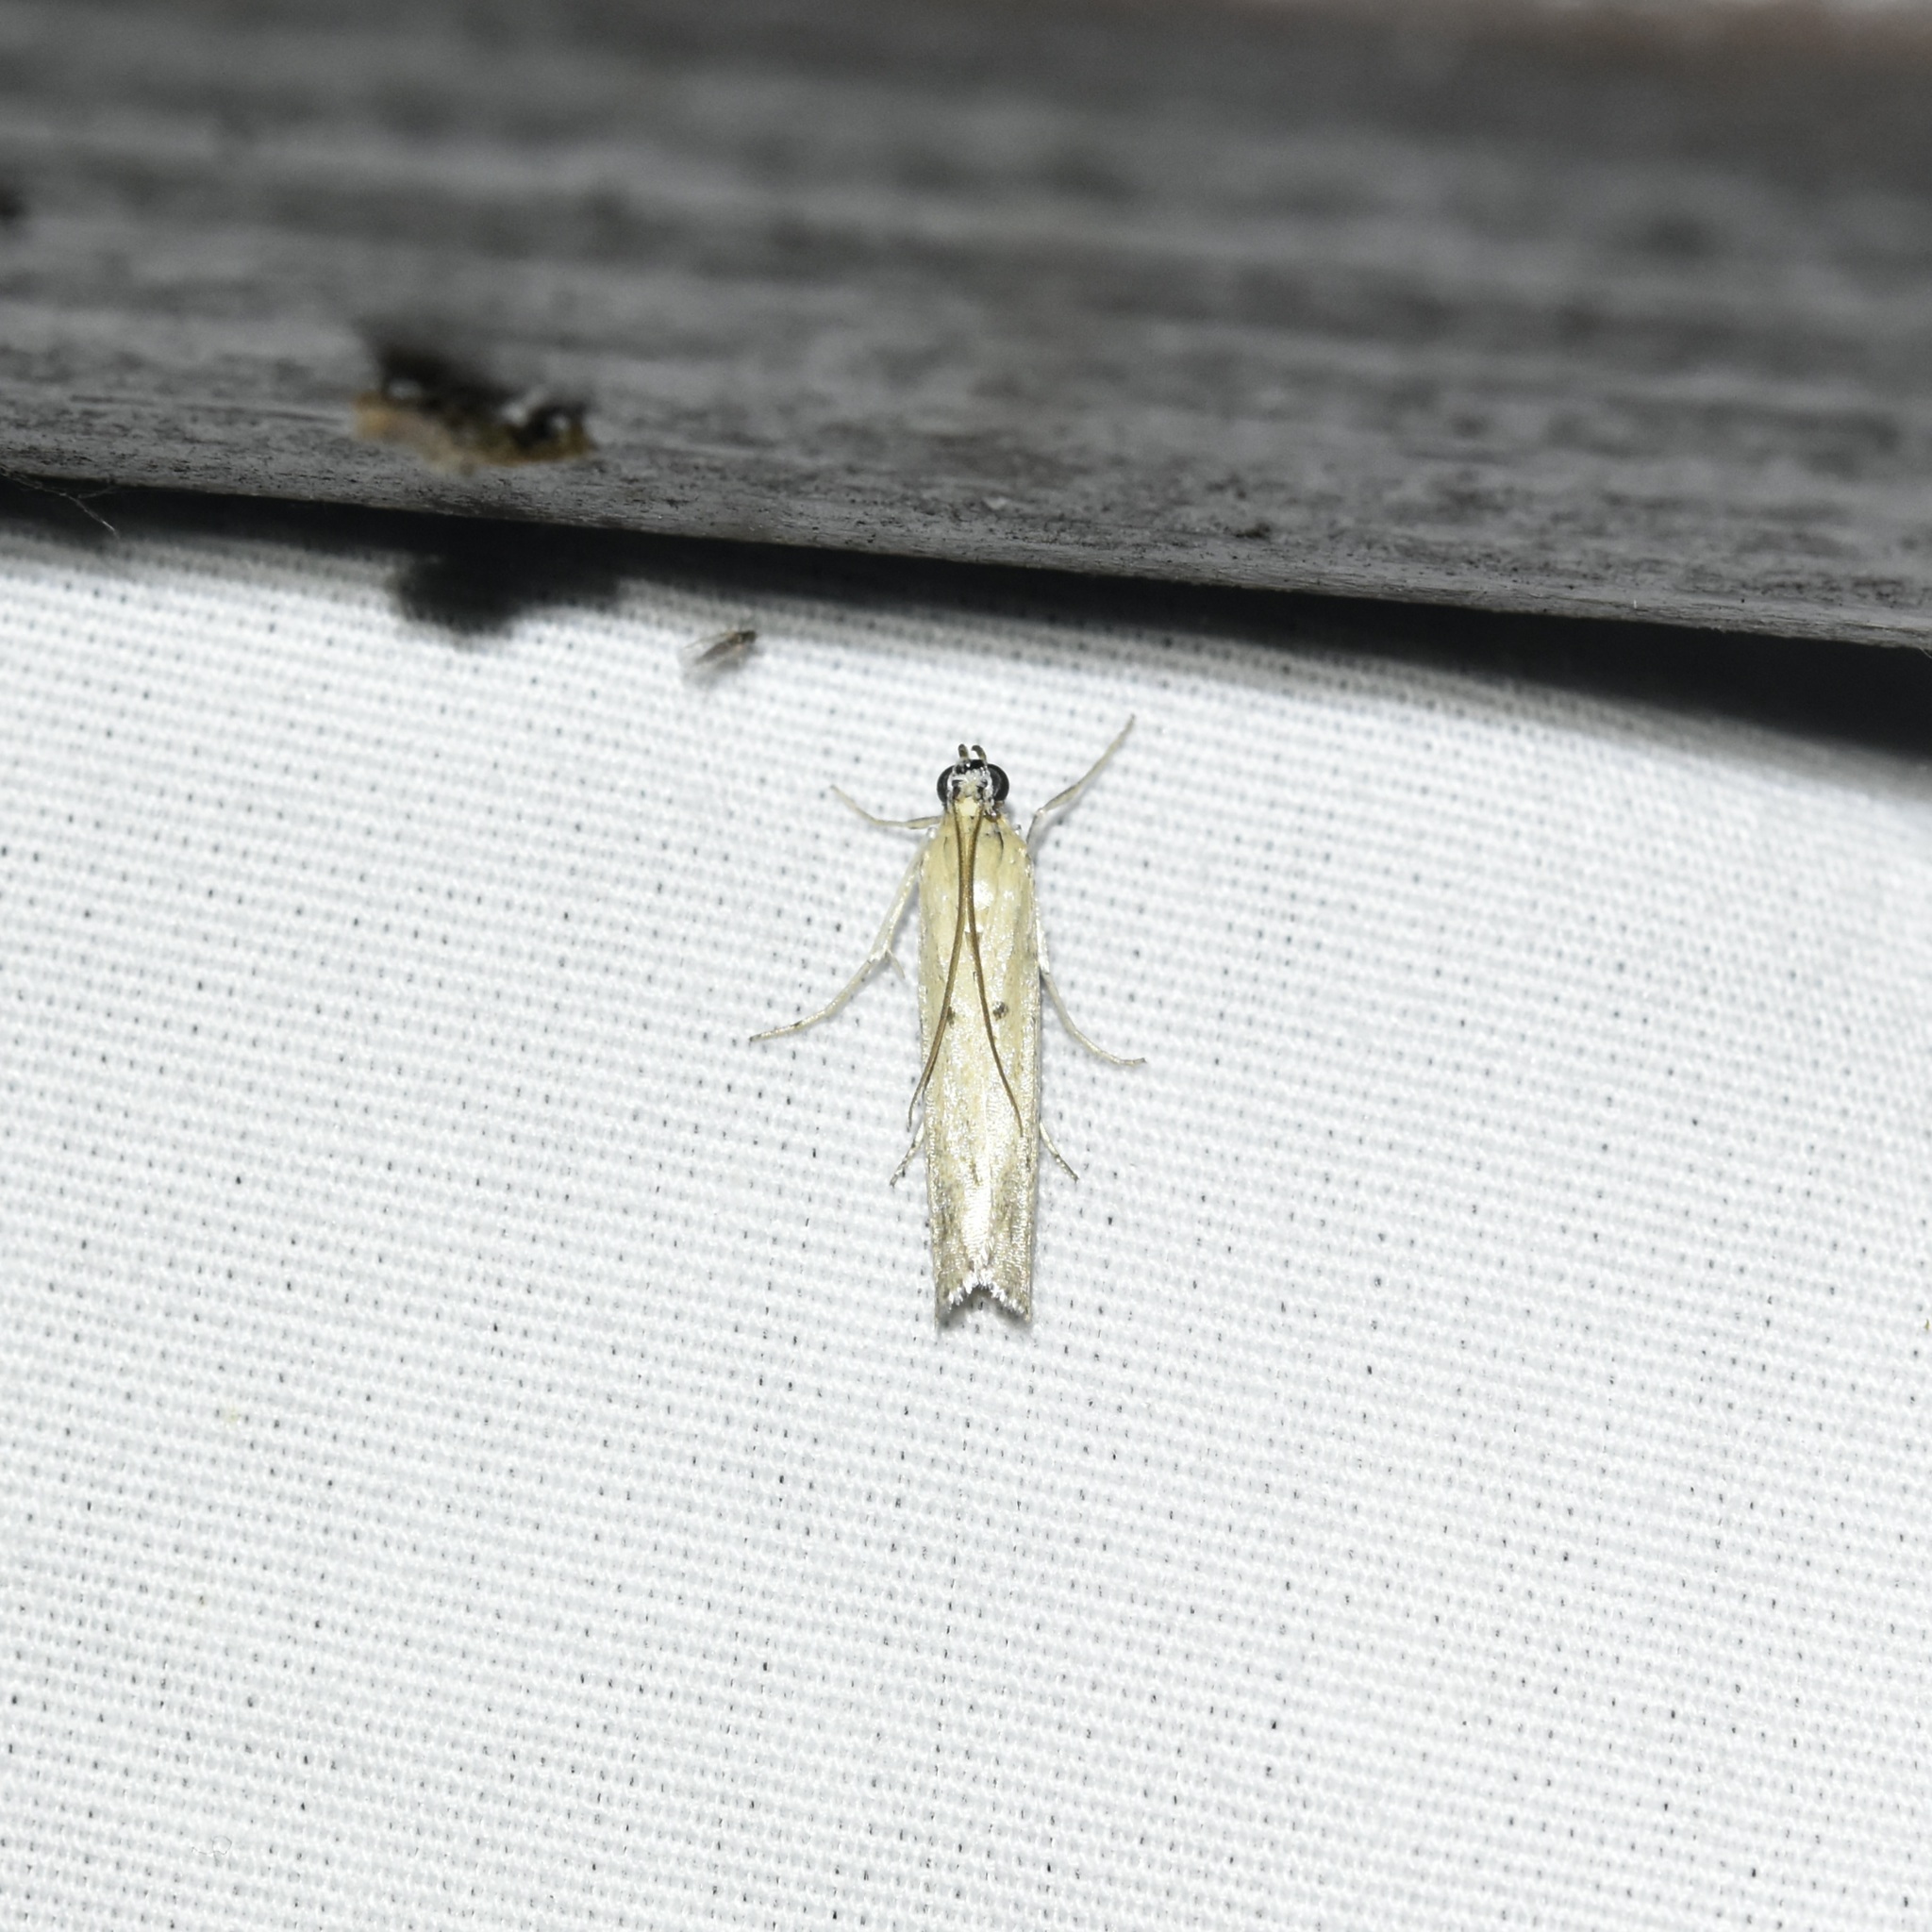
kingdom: Animalia
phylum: Arthropoda
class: Insecta
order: Lepidoptera
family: Pyralidae
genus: Homoeosoma
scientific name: Homoeosoma electella
